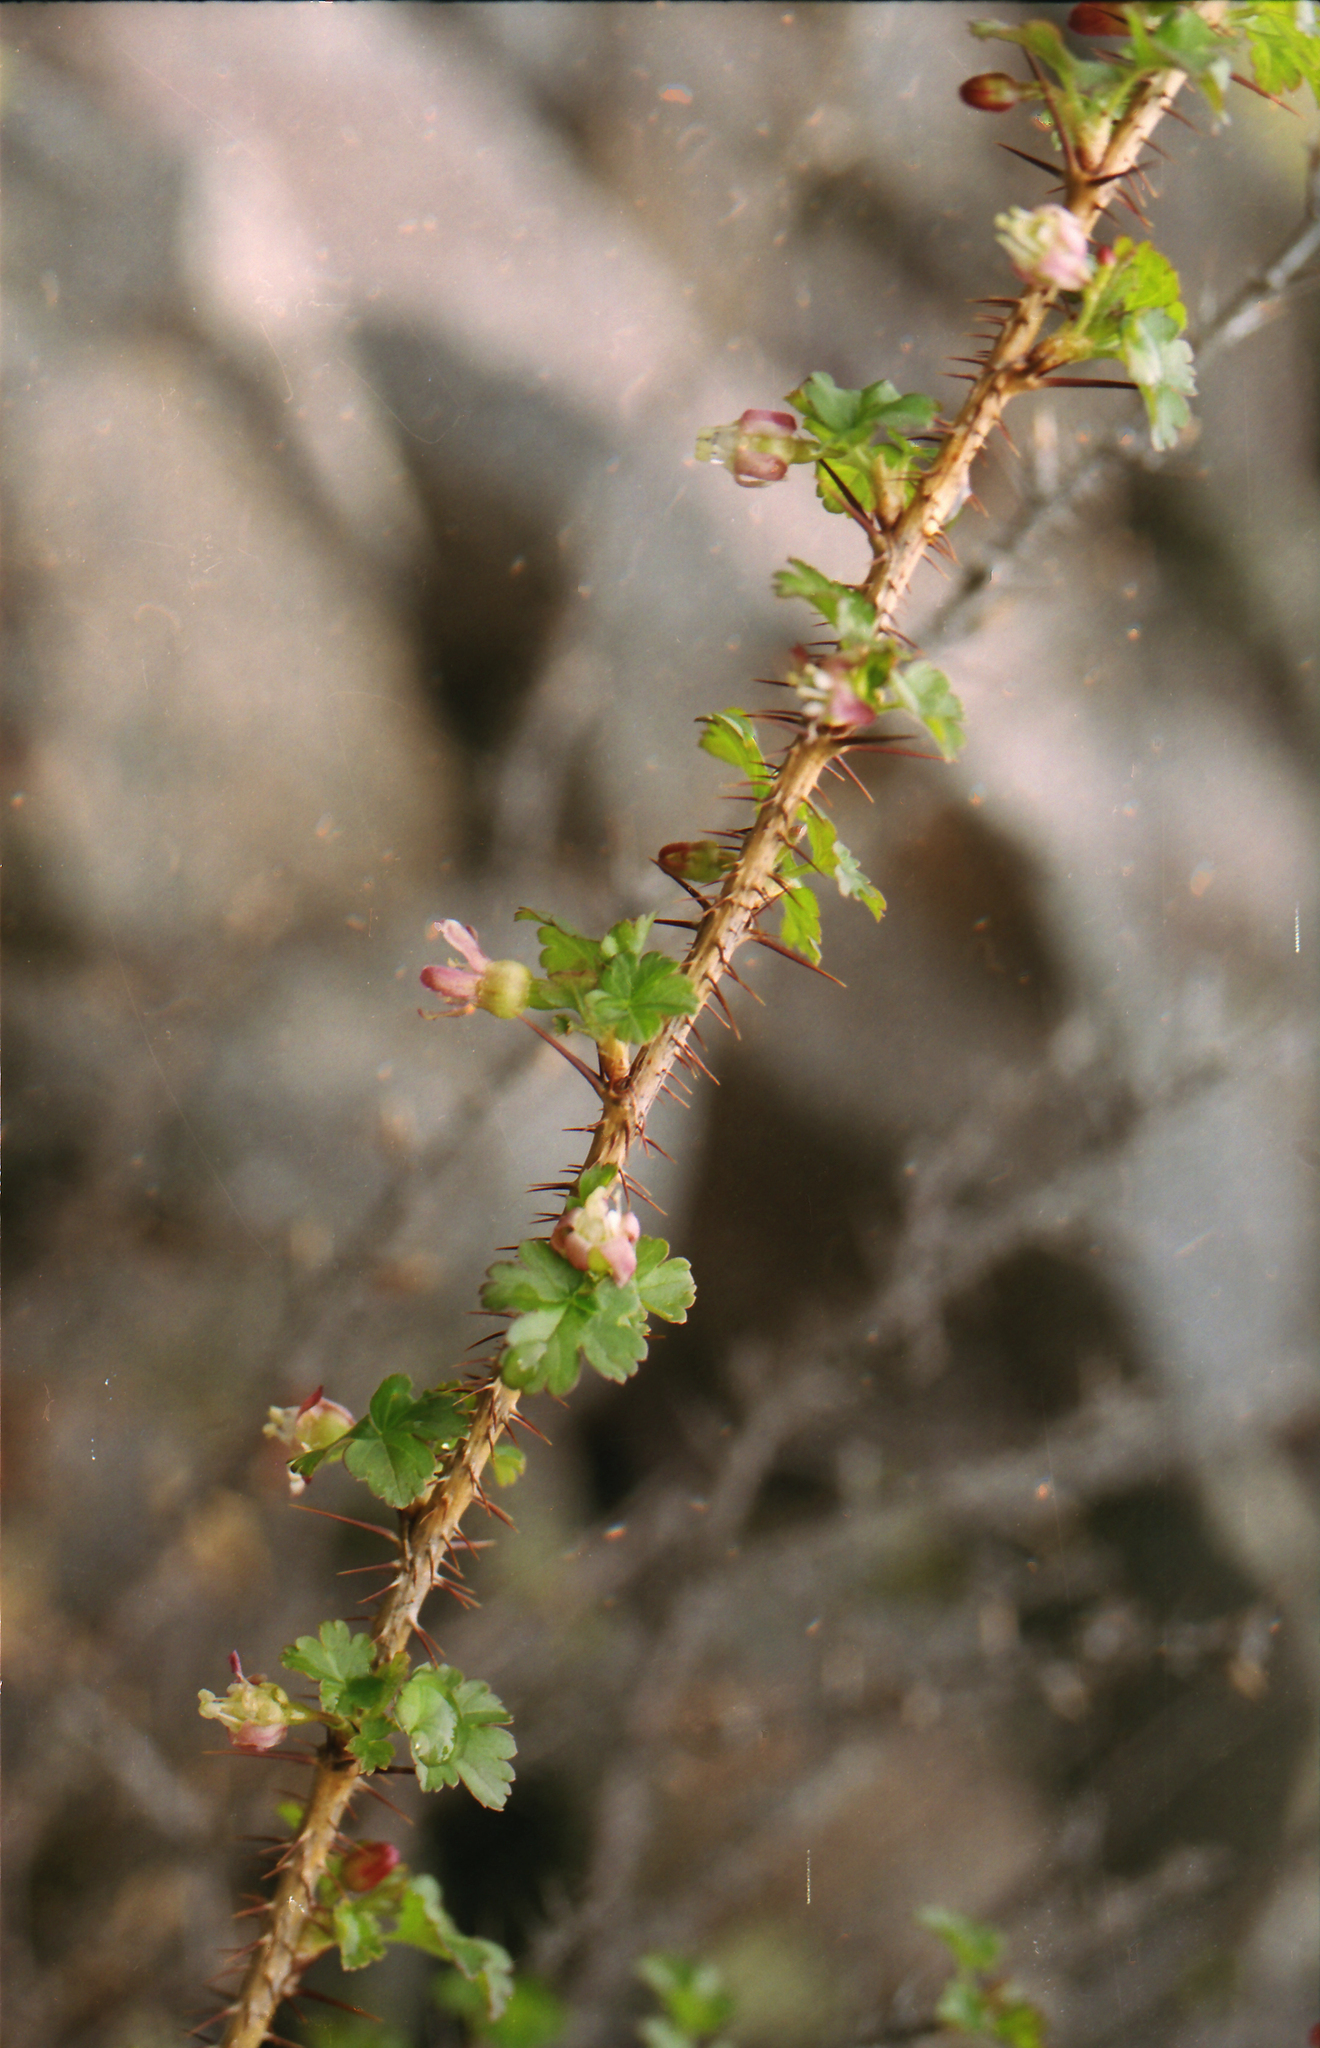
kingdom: Plantae
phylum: Tracheophyta
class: Magnoliopsida
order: Saxifragales
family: Grossulariaceae
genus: Ribes
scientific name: Ribes aciculare
